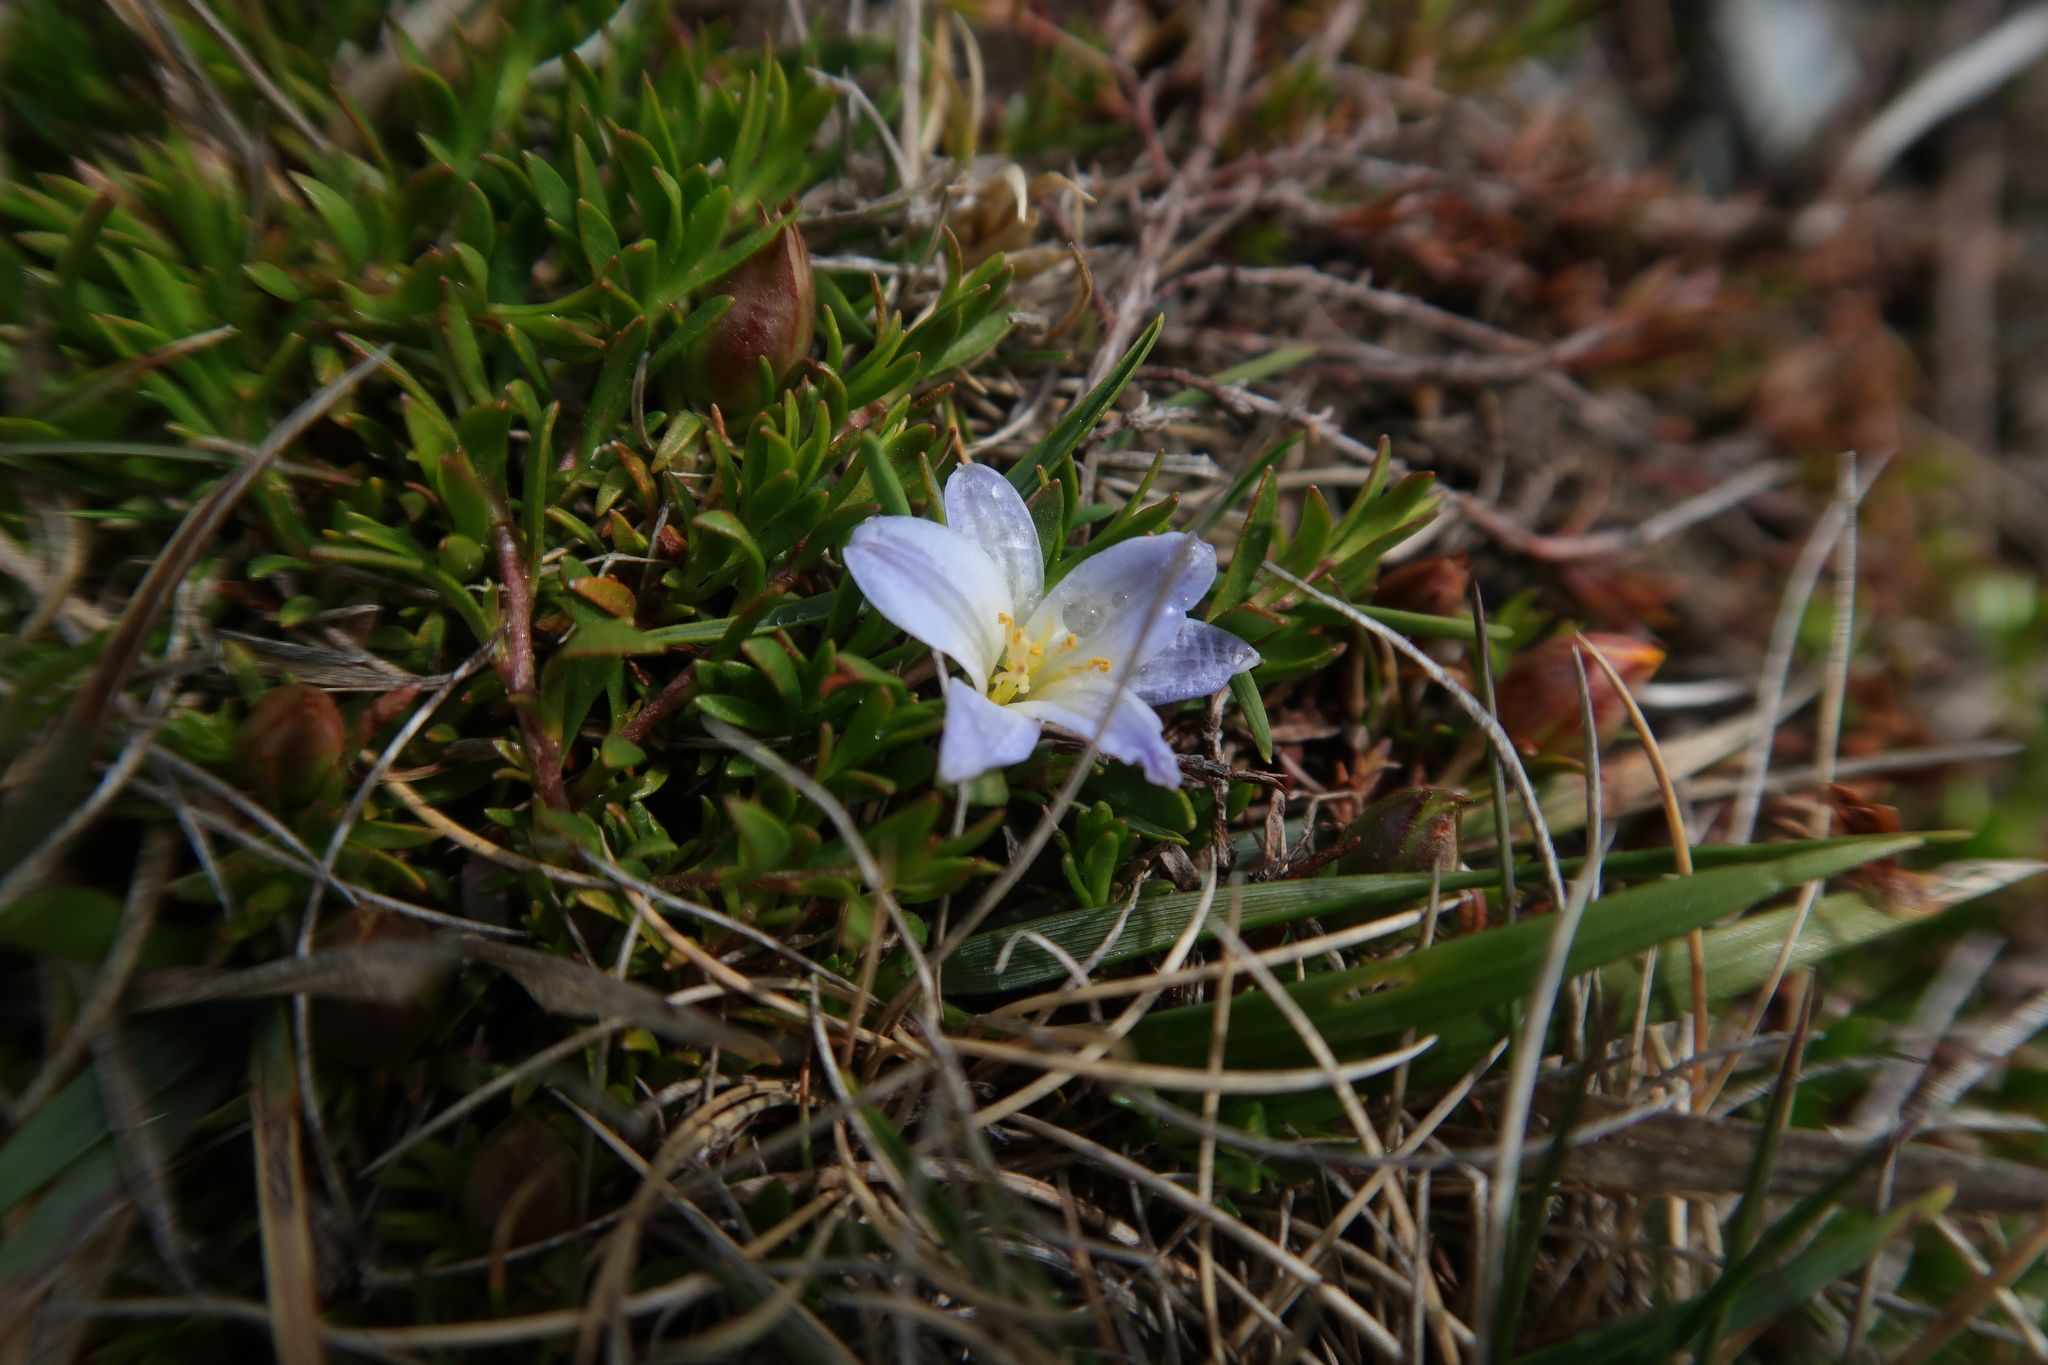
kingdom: Plantae
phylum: Tracheophyta
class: Liliopsida
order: Asparagales
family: Asphodelaceae
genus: Herpolirion
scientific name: Herpolirion novae-zelandiae
